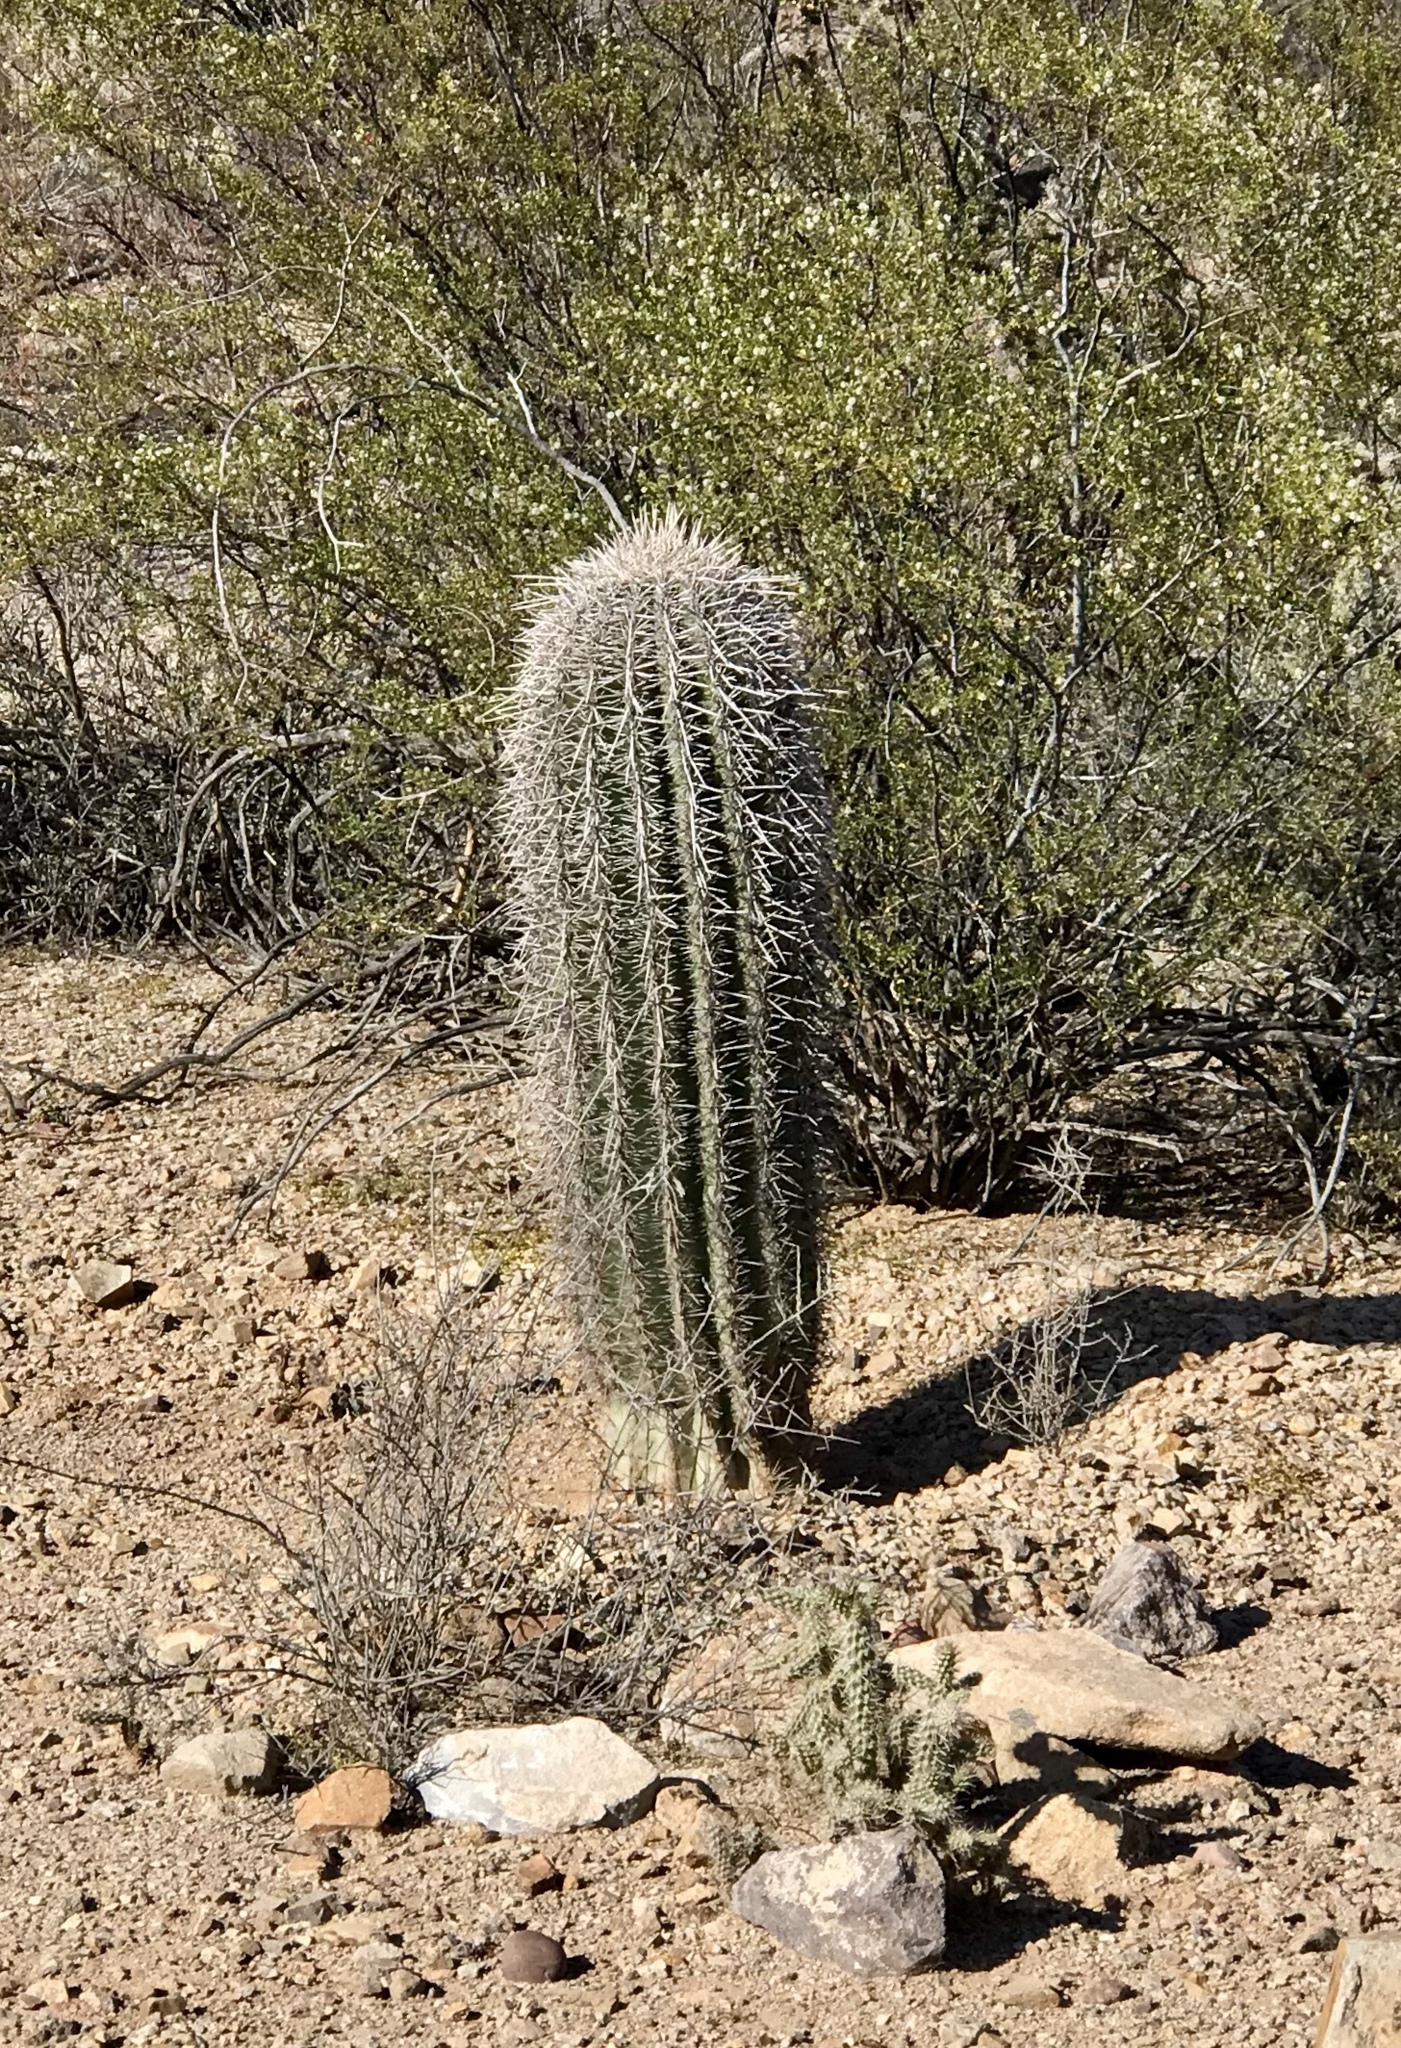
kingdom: Plantae
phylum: Tracheophyta
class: Magnoliopsida
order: Caryophyllales
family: Cactaceae
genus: Carnegiea
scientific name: Carnegiea gigantea
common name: Saguaro
